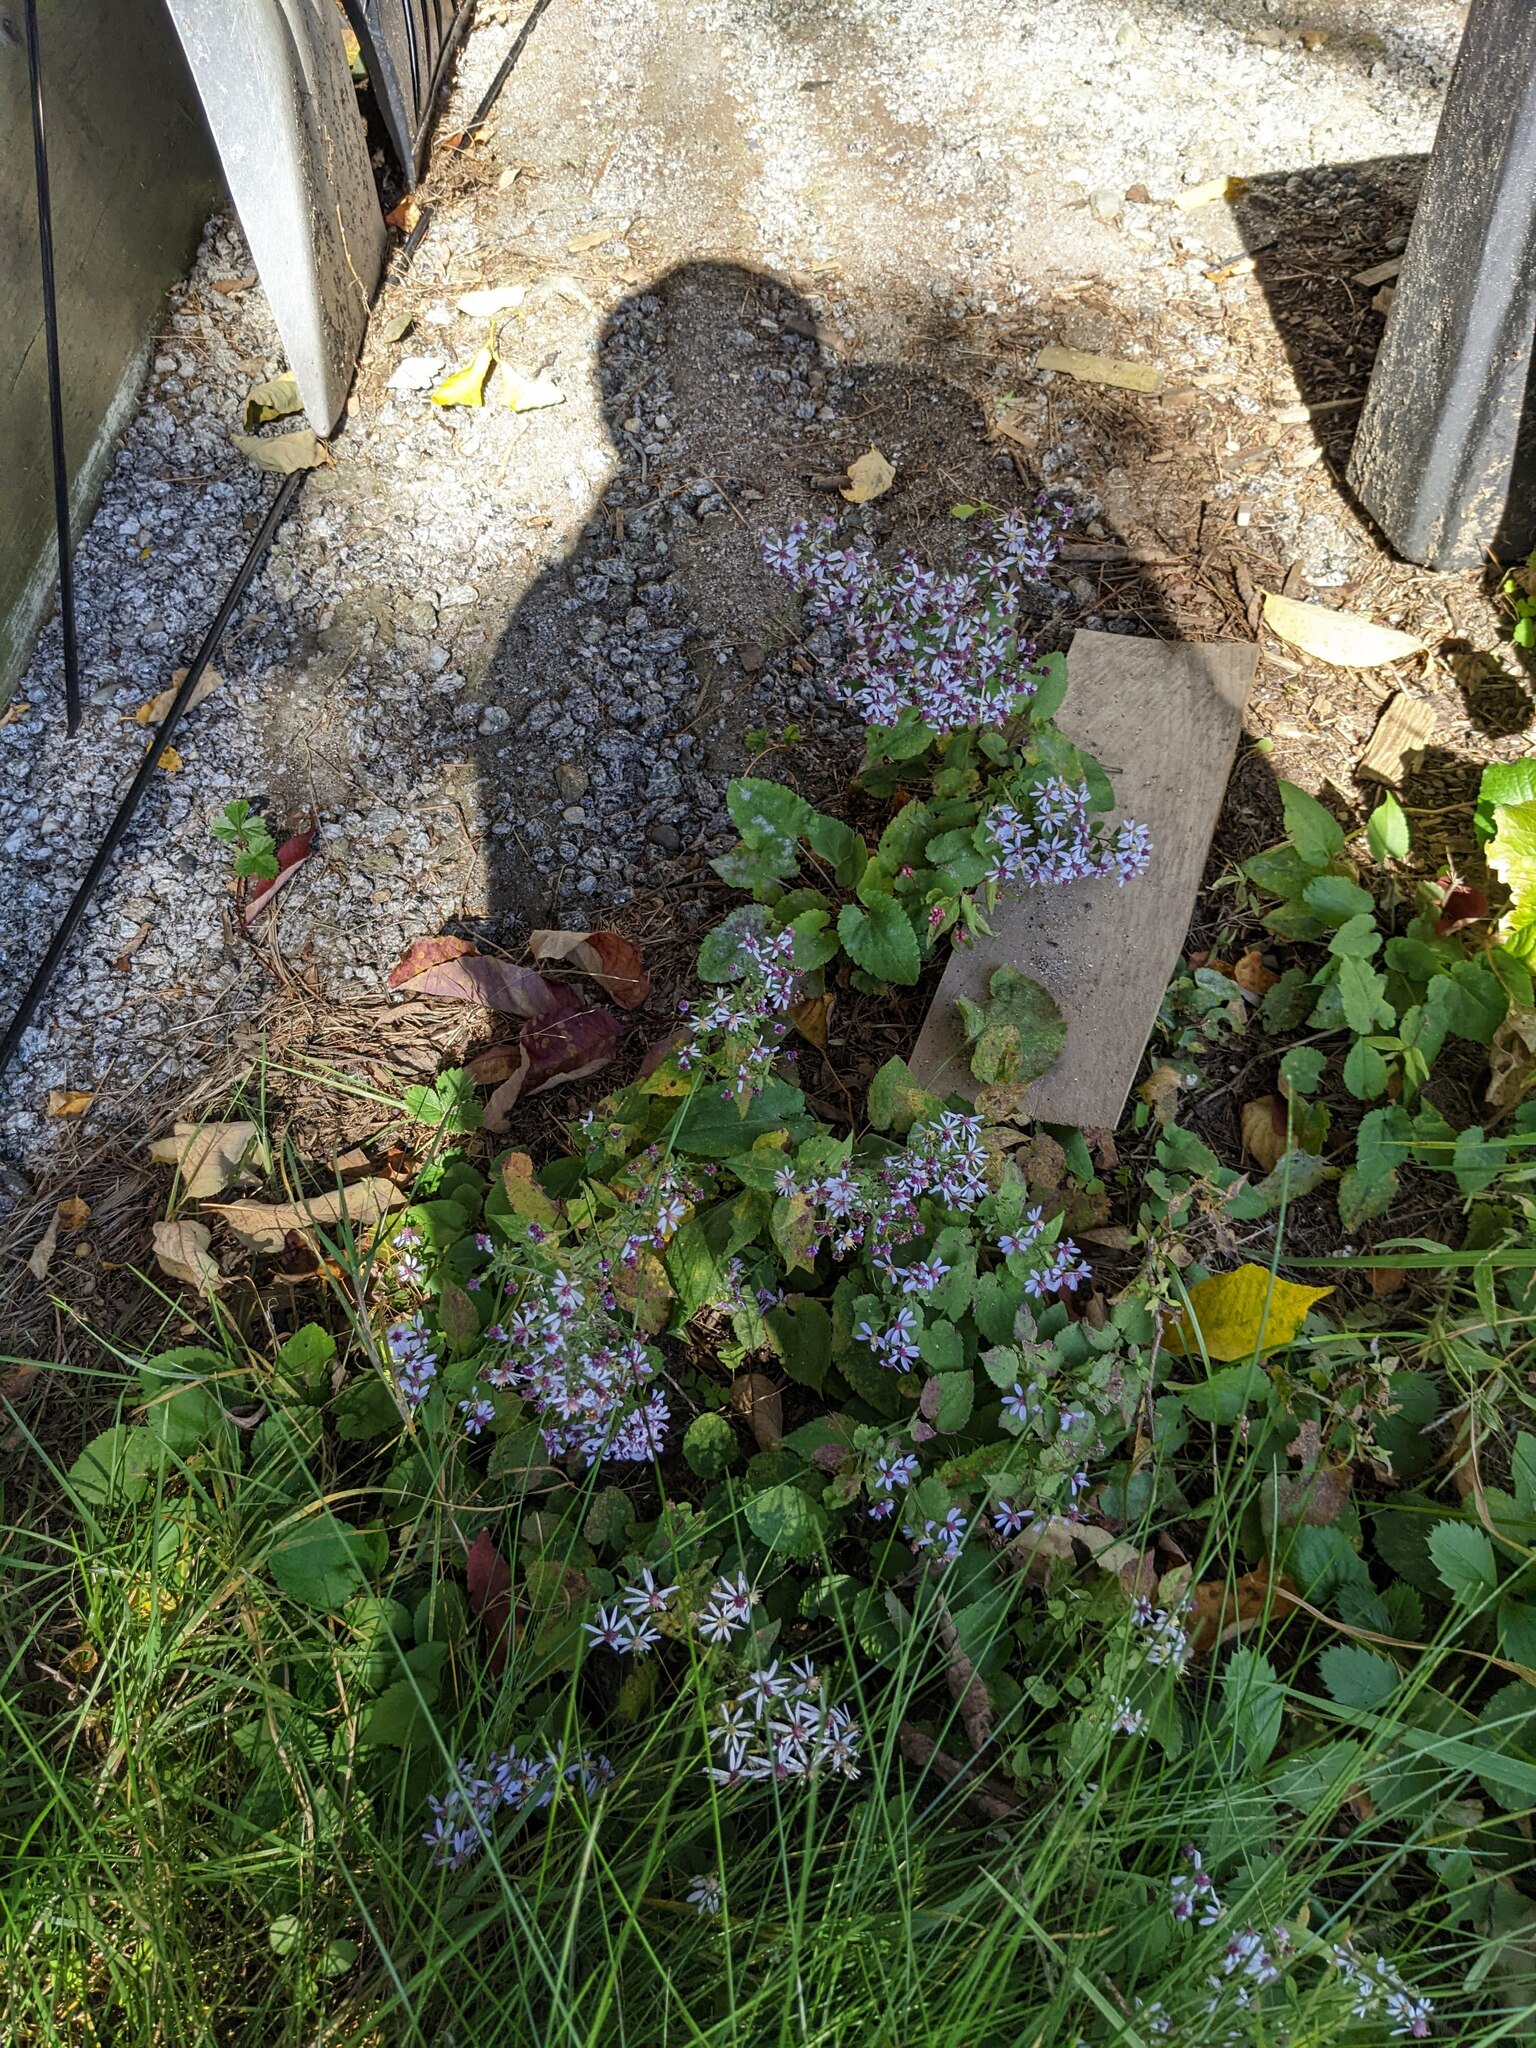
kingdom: Plantae
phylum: Tracheophyta
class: Magnoliopsida
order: Asterales
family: Asteraceae
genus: Symphyotrichum
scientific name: Symphyotrichum cordifolium
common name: Beeweed
